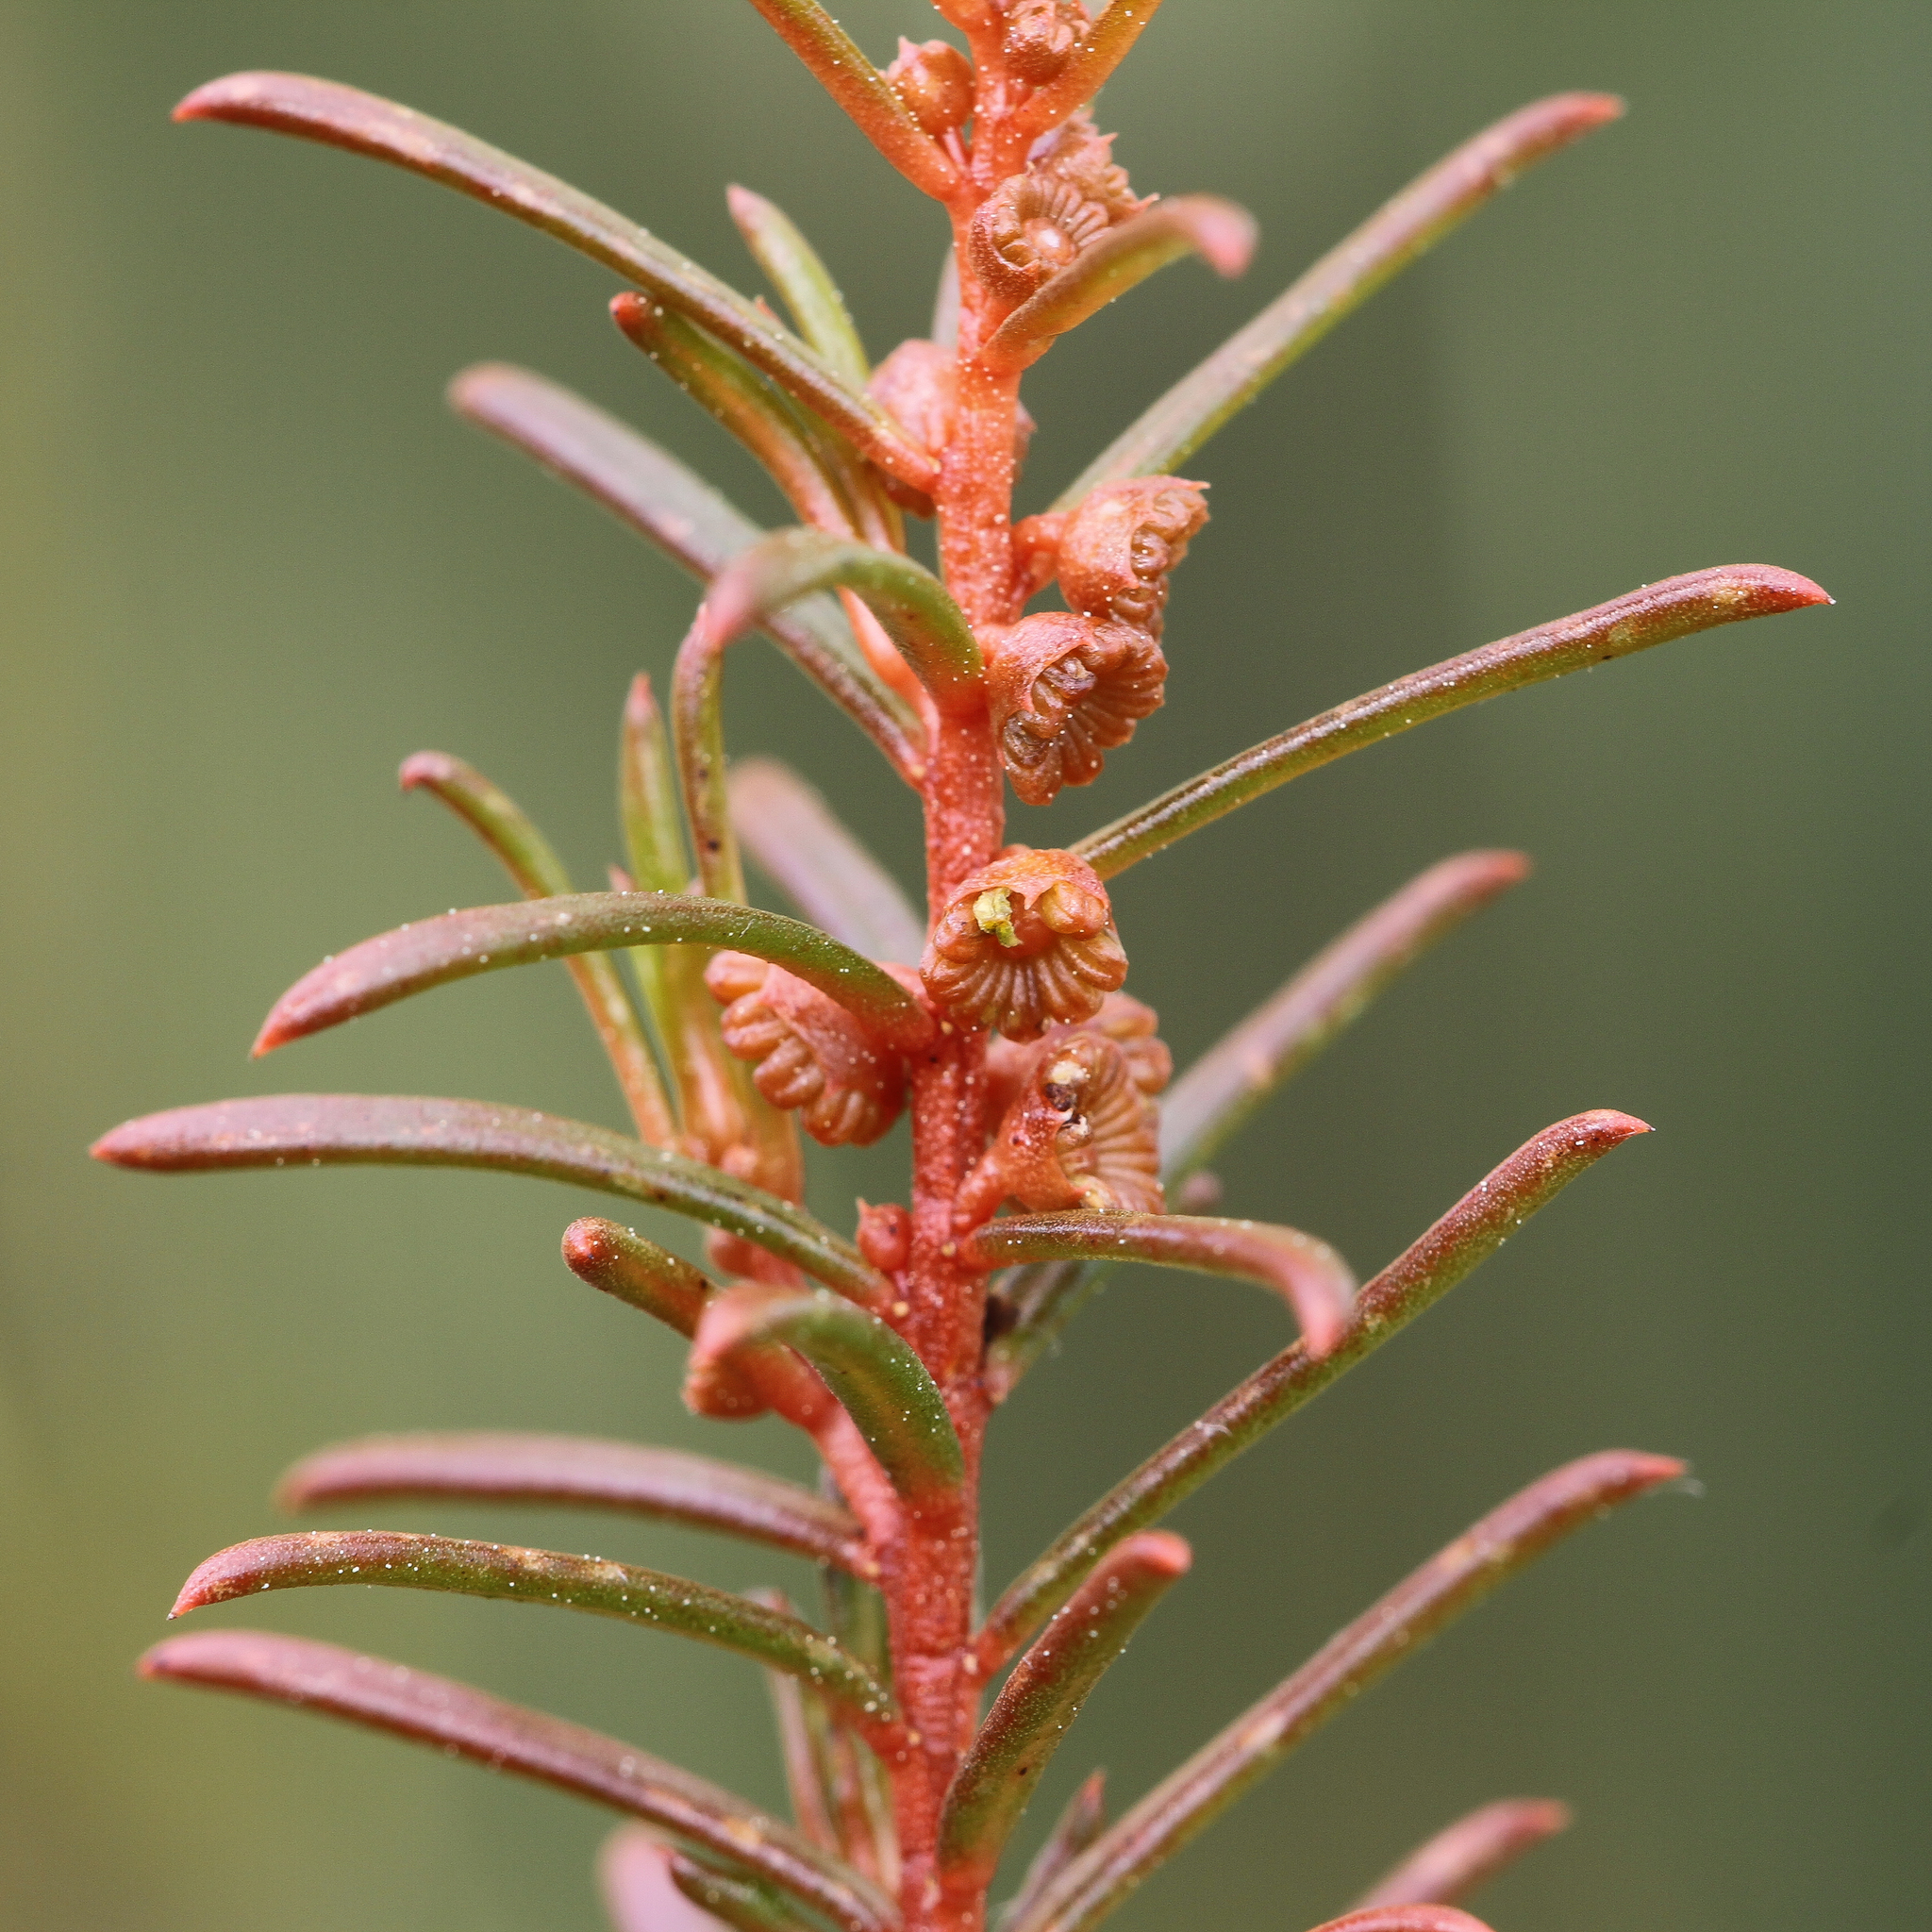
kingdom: Plantae
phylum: Tracheophyta
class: Magnoliopsida
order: Brassicales
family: Gyrostemonaceae
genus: Gyrostemon
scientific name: Gyrostemon australasicus
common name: Wheelfruit
